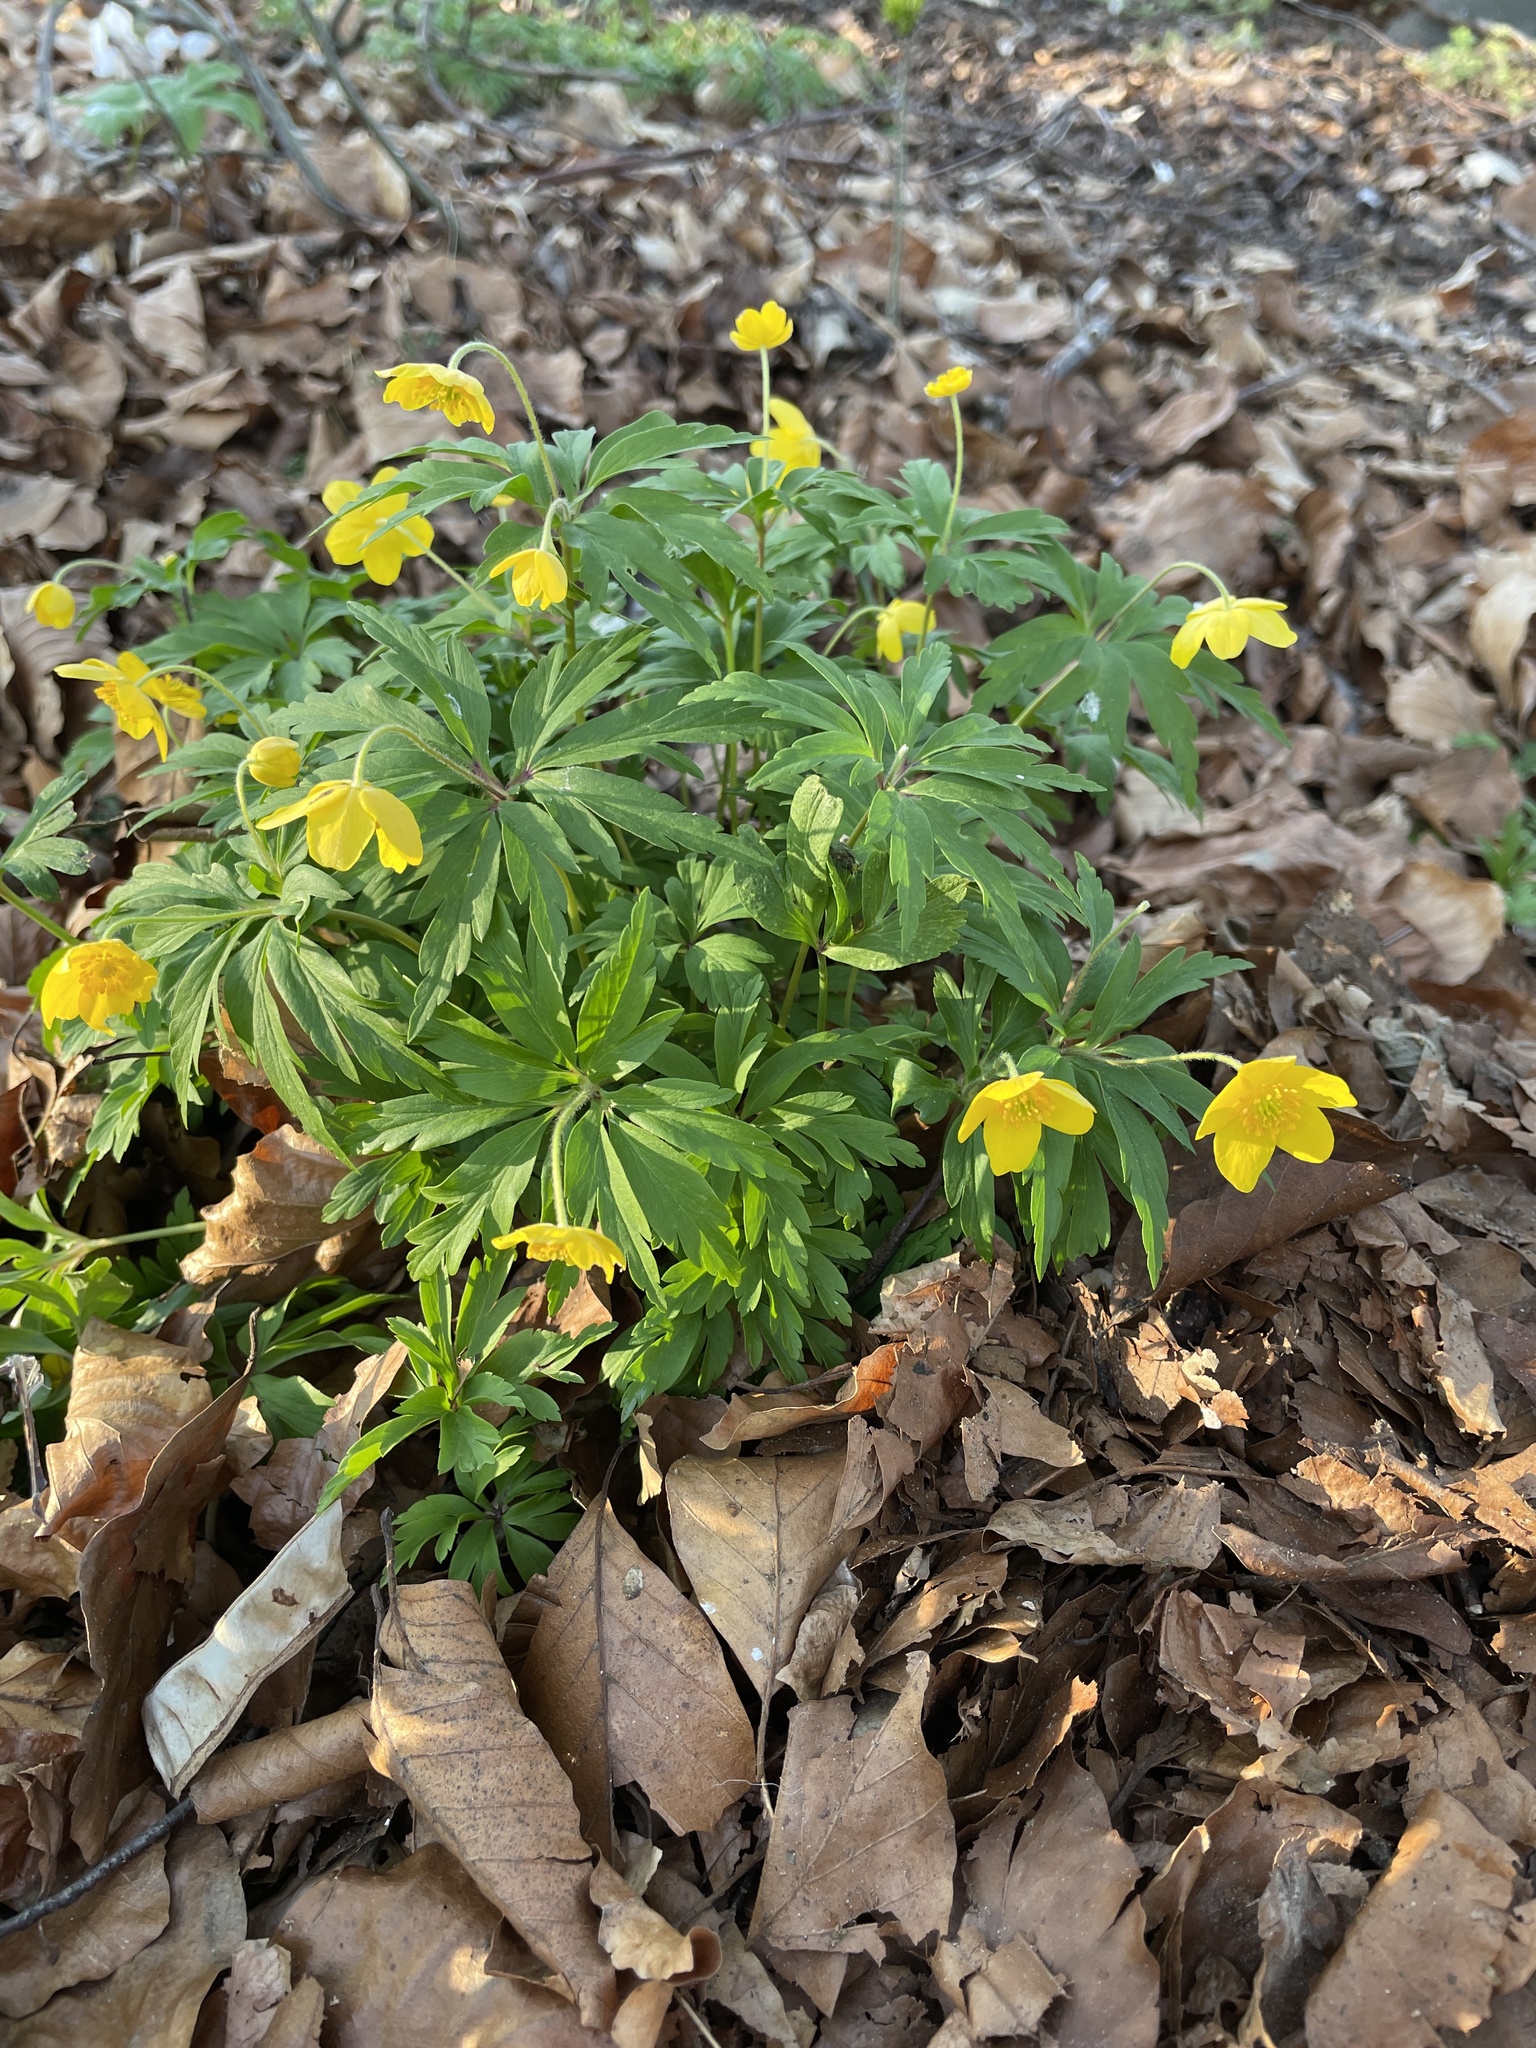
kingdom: Plantae
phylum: Tracheophyta
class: Magnoliopsida
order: Ranunculales
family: Ranunculaceae
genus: Anemone
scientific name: Anemone ranunculoides
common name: Yellow anemone
